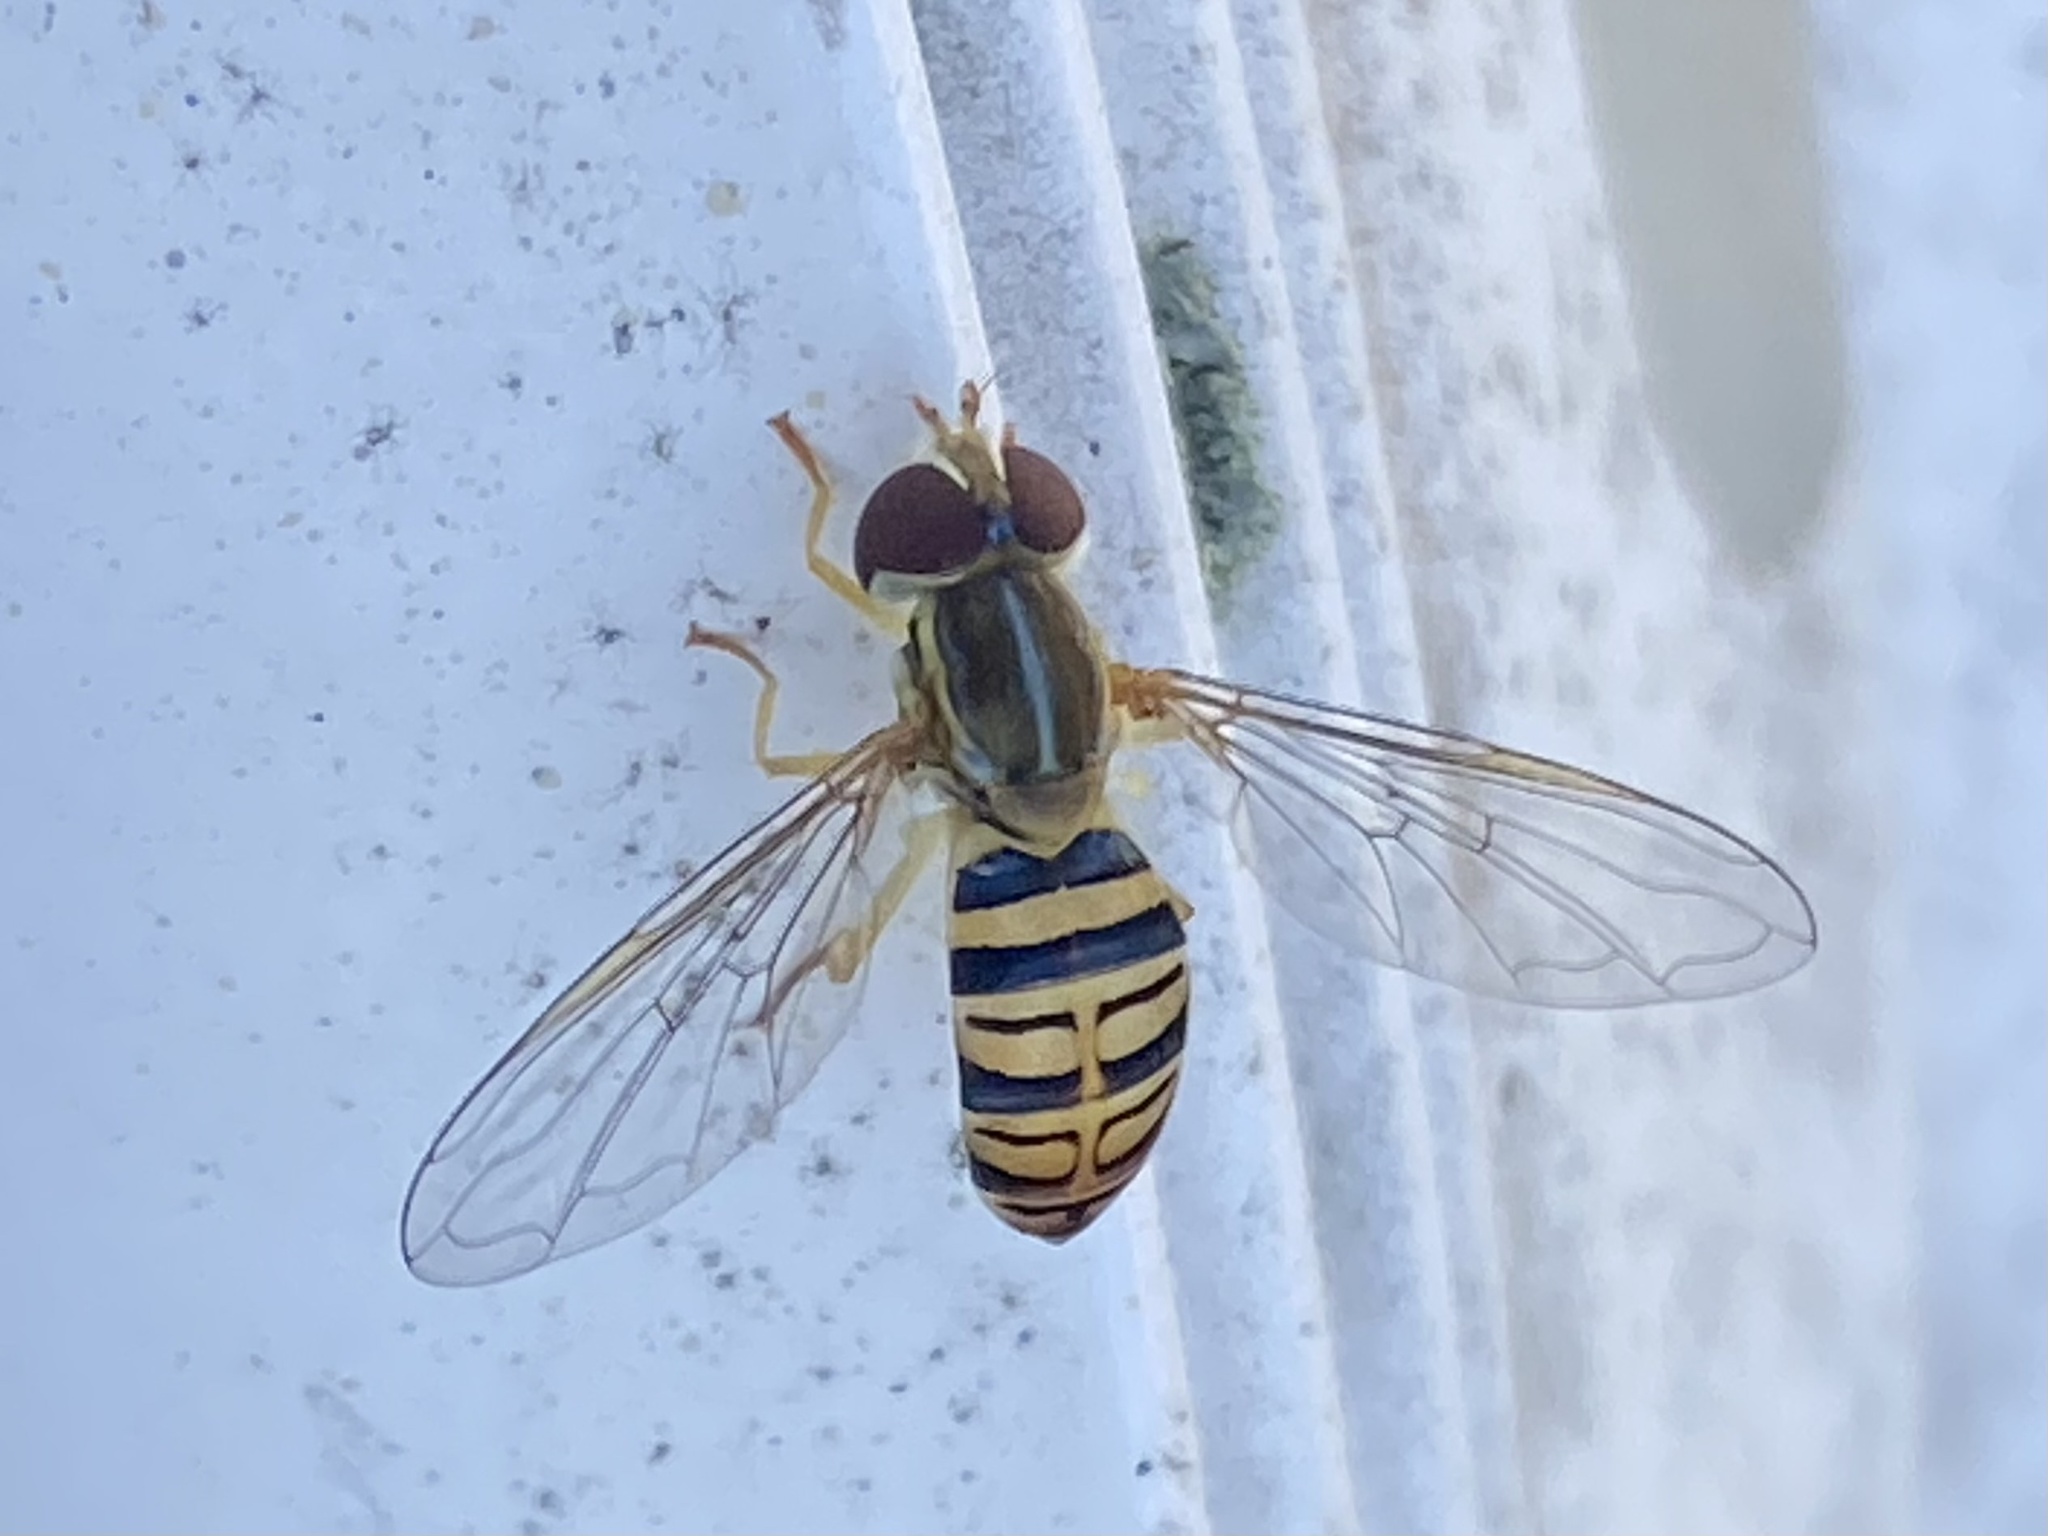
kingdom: Animalia
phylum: Arthropoda
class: Insecta
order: Diptera
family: Syrphidae
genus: Toxomerus
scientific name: Toxomerus politus
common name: Maize calligrapher
